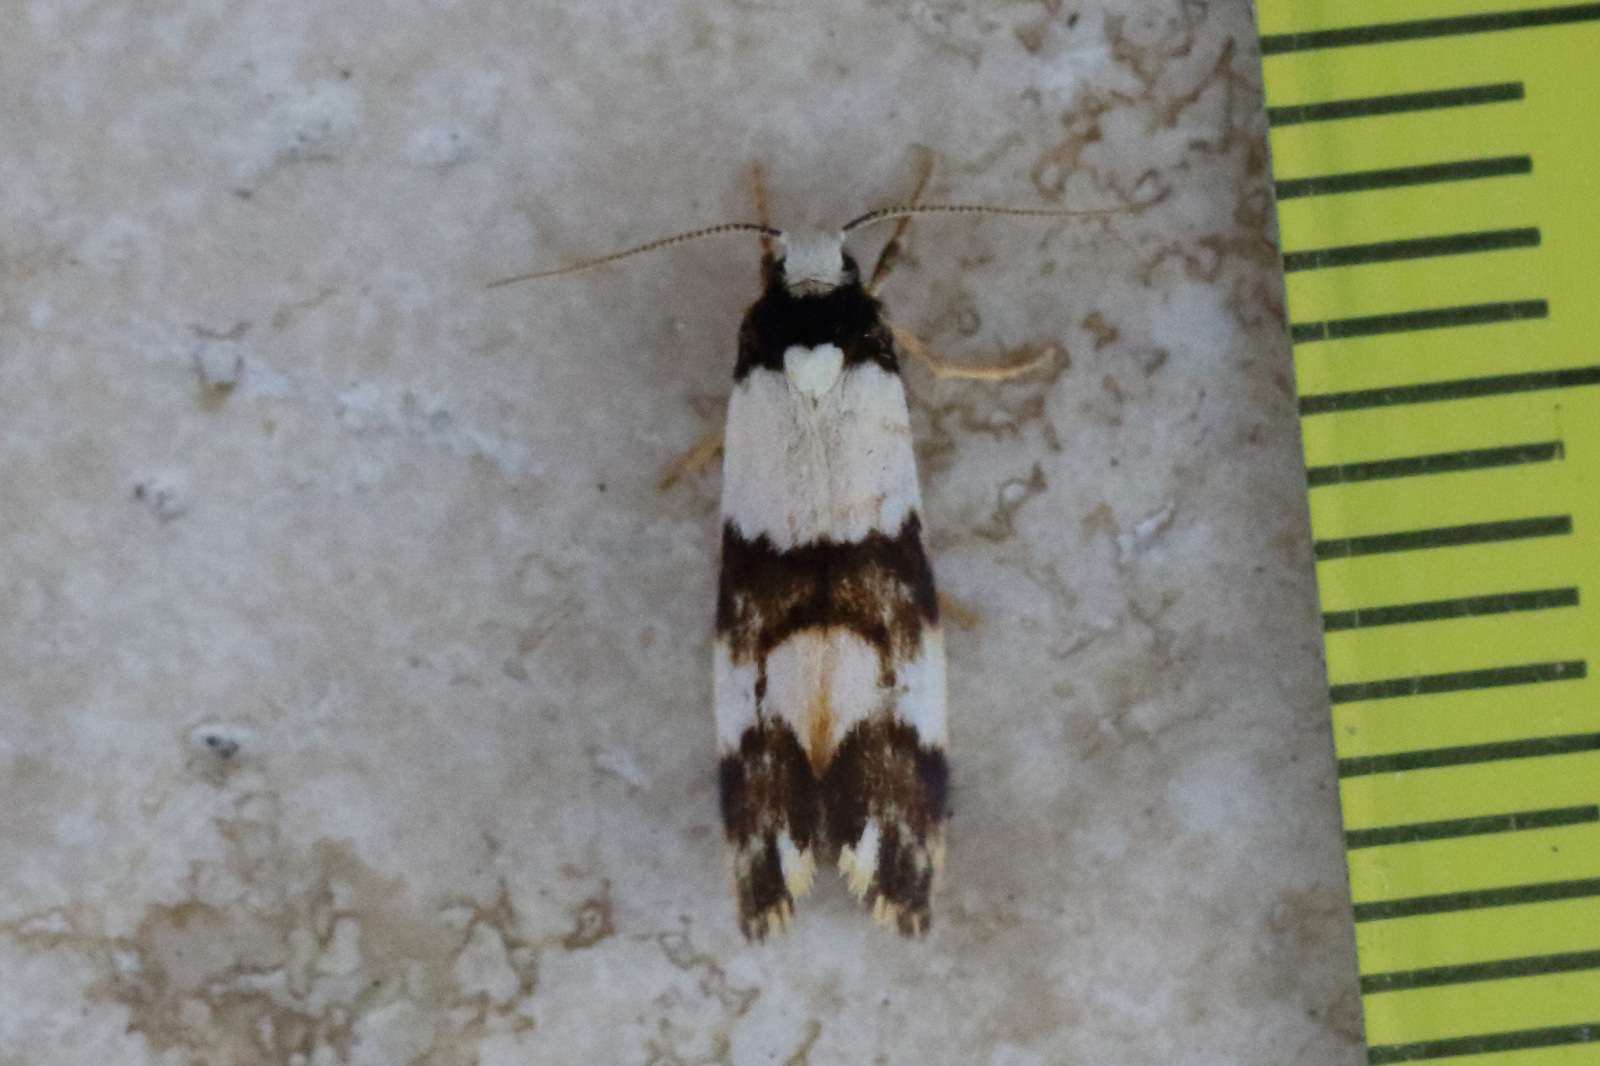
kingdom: Animalia
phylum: Arthropoda
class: Insecta
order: Lepidoptera
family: Erebidae
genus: Philenora
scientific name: Philenora aspectalella
